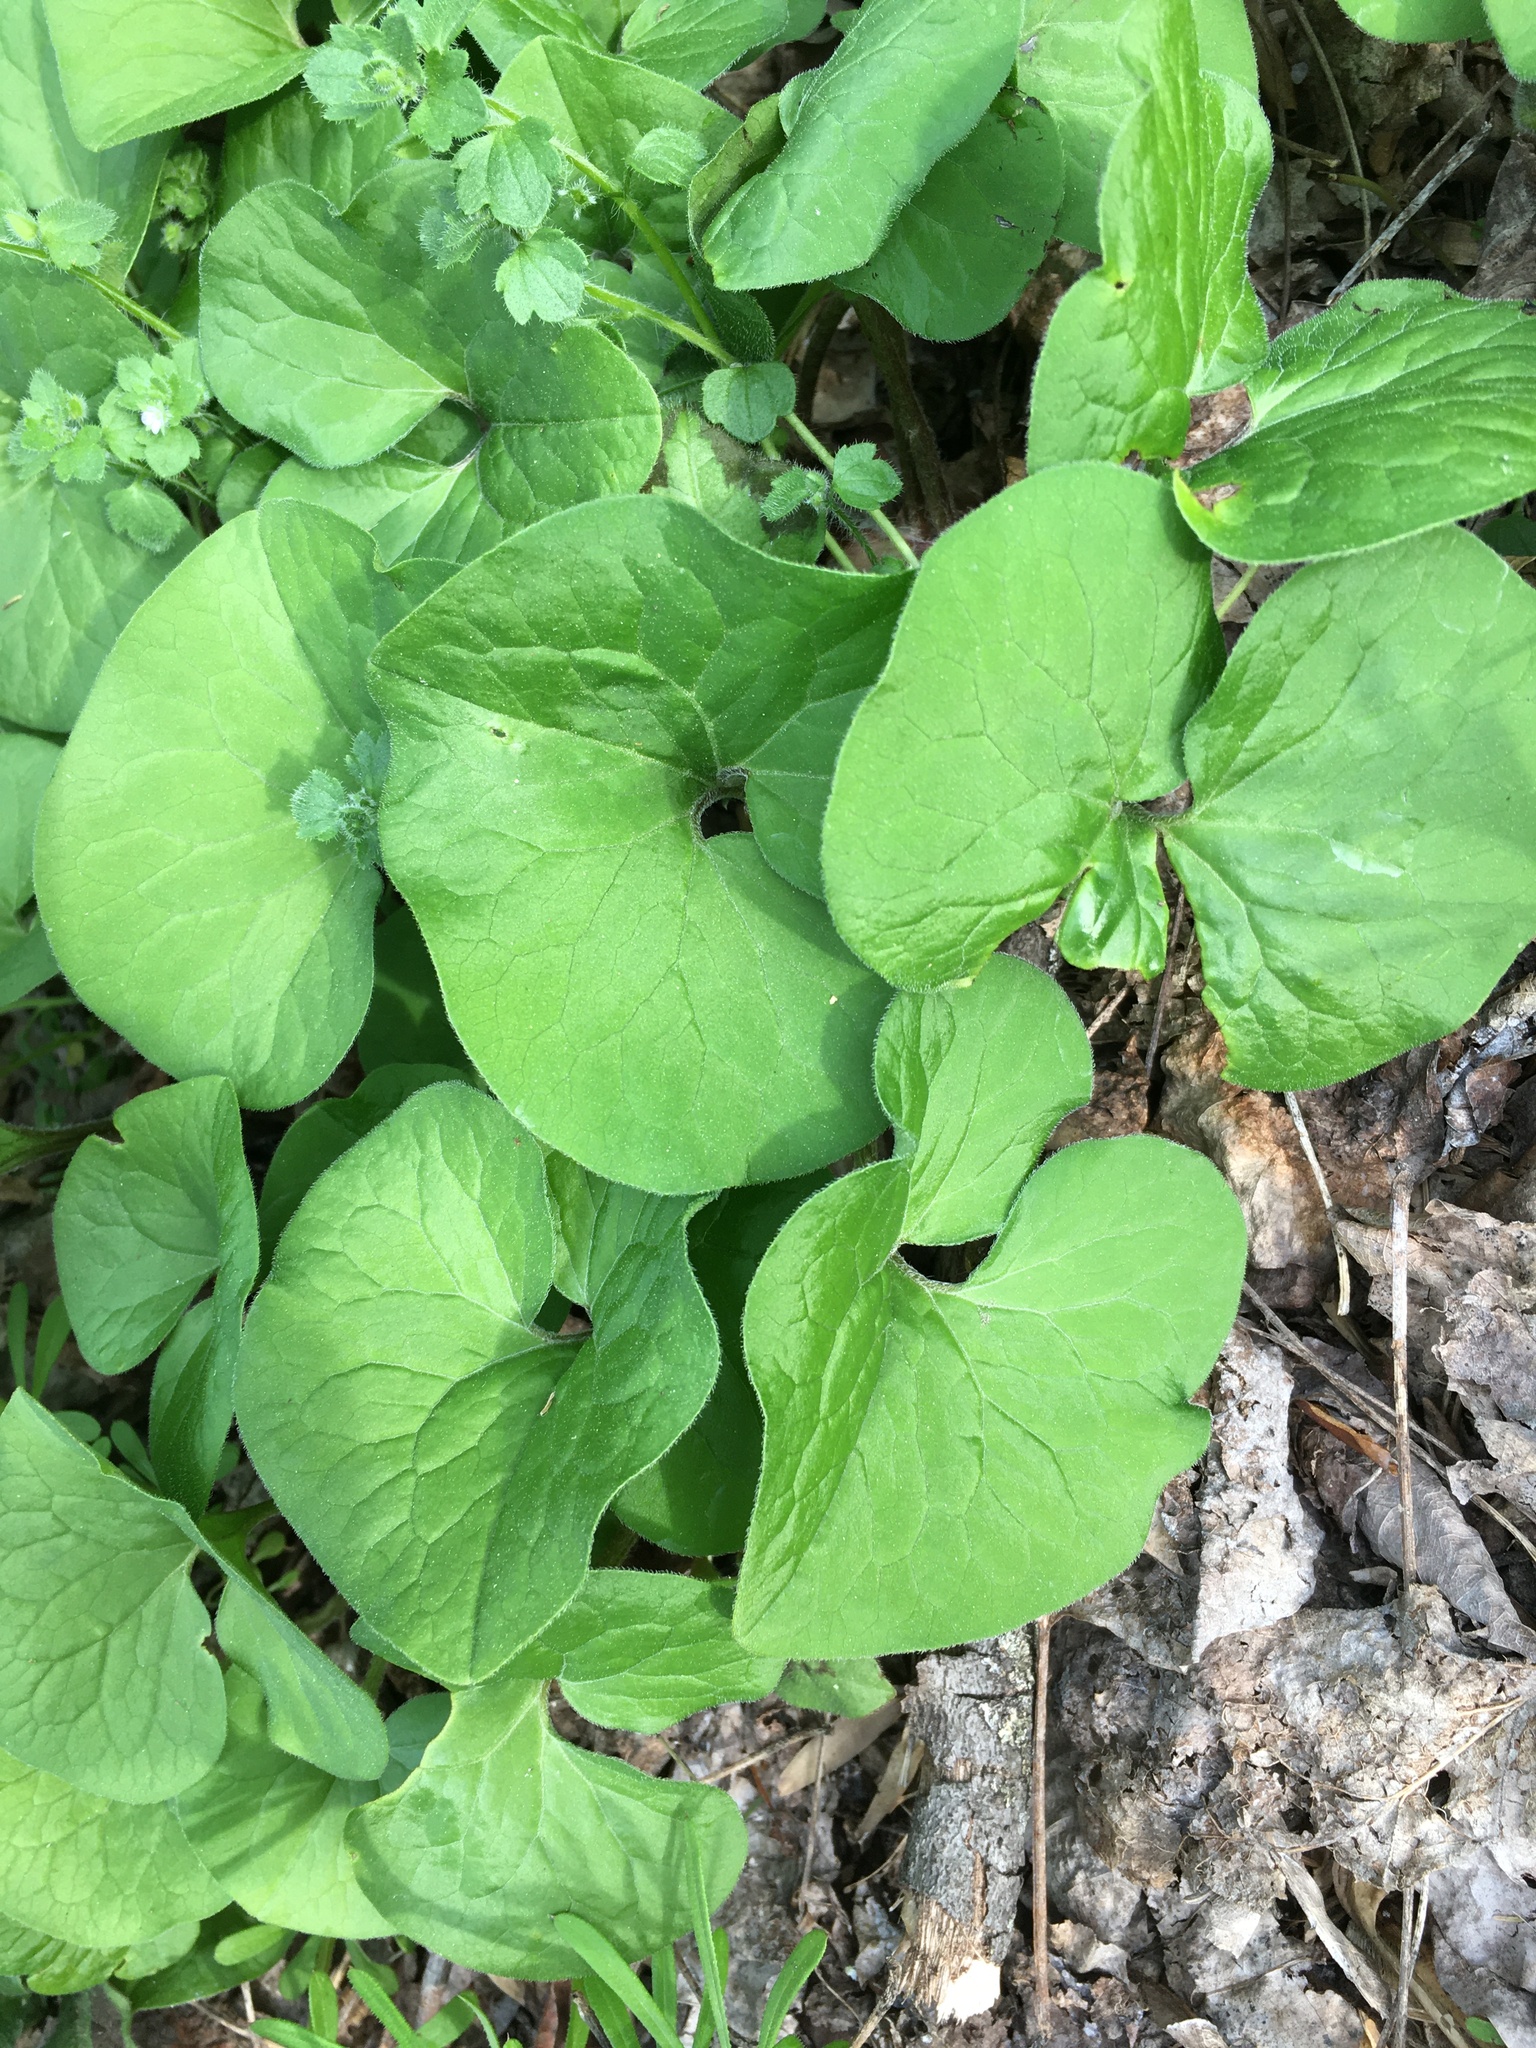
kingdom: Plantae
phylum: Tracheophyta
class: Magnoliopsida
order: Piperales
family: Aristolochiaceae
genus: Asarum
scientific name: Asarum canadense
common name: Wild ginger
